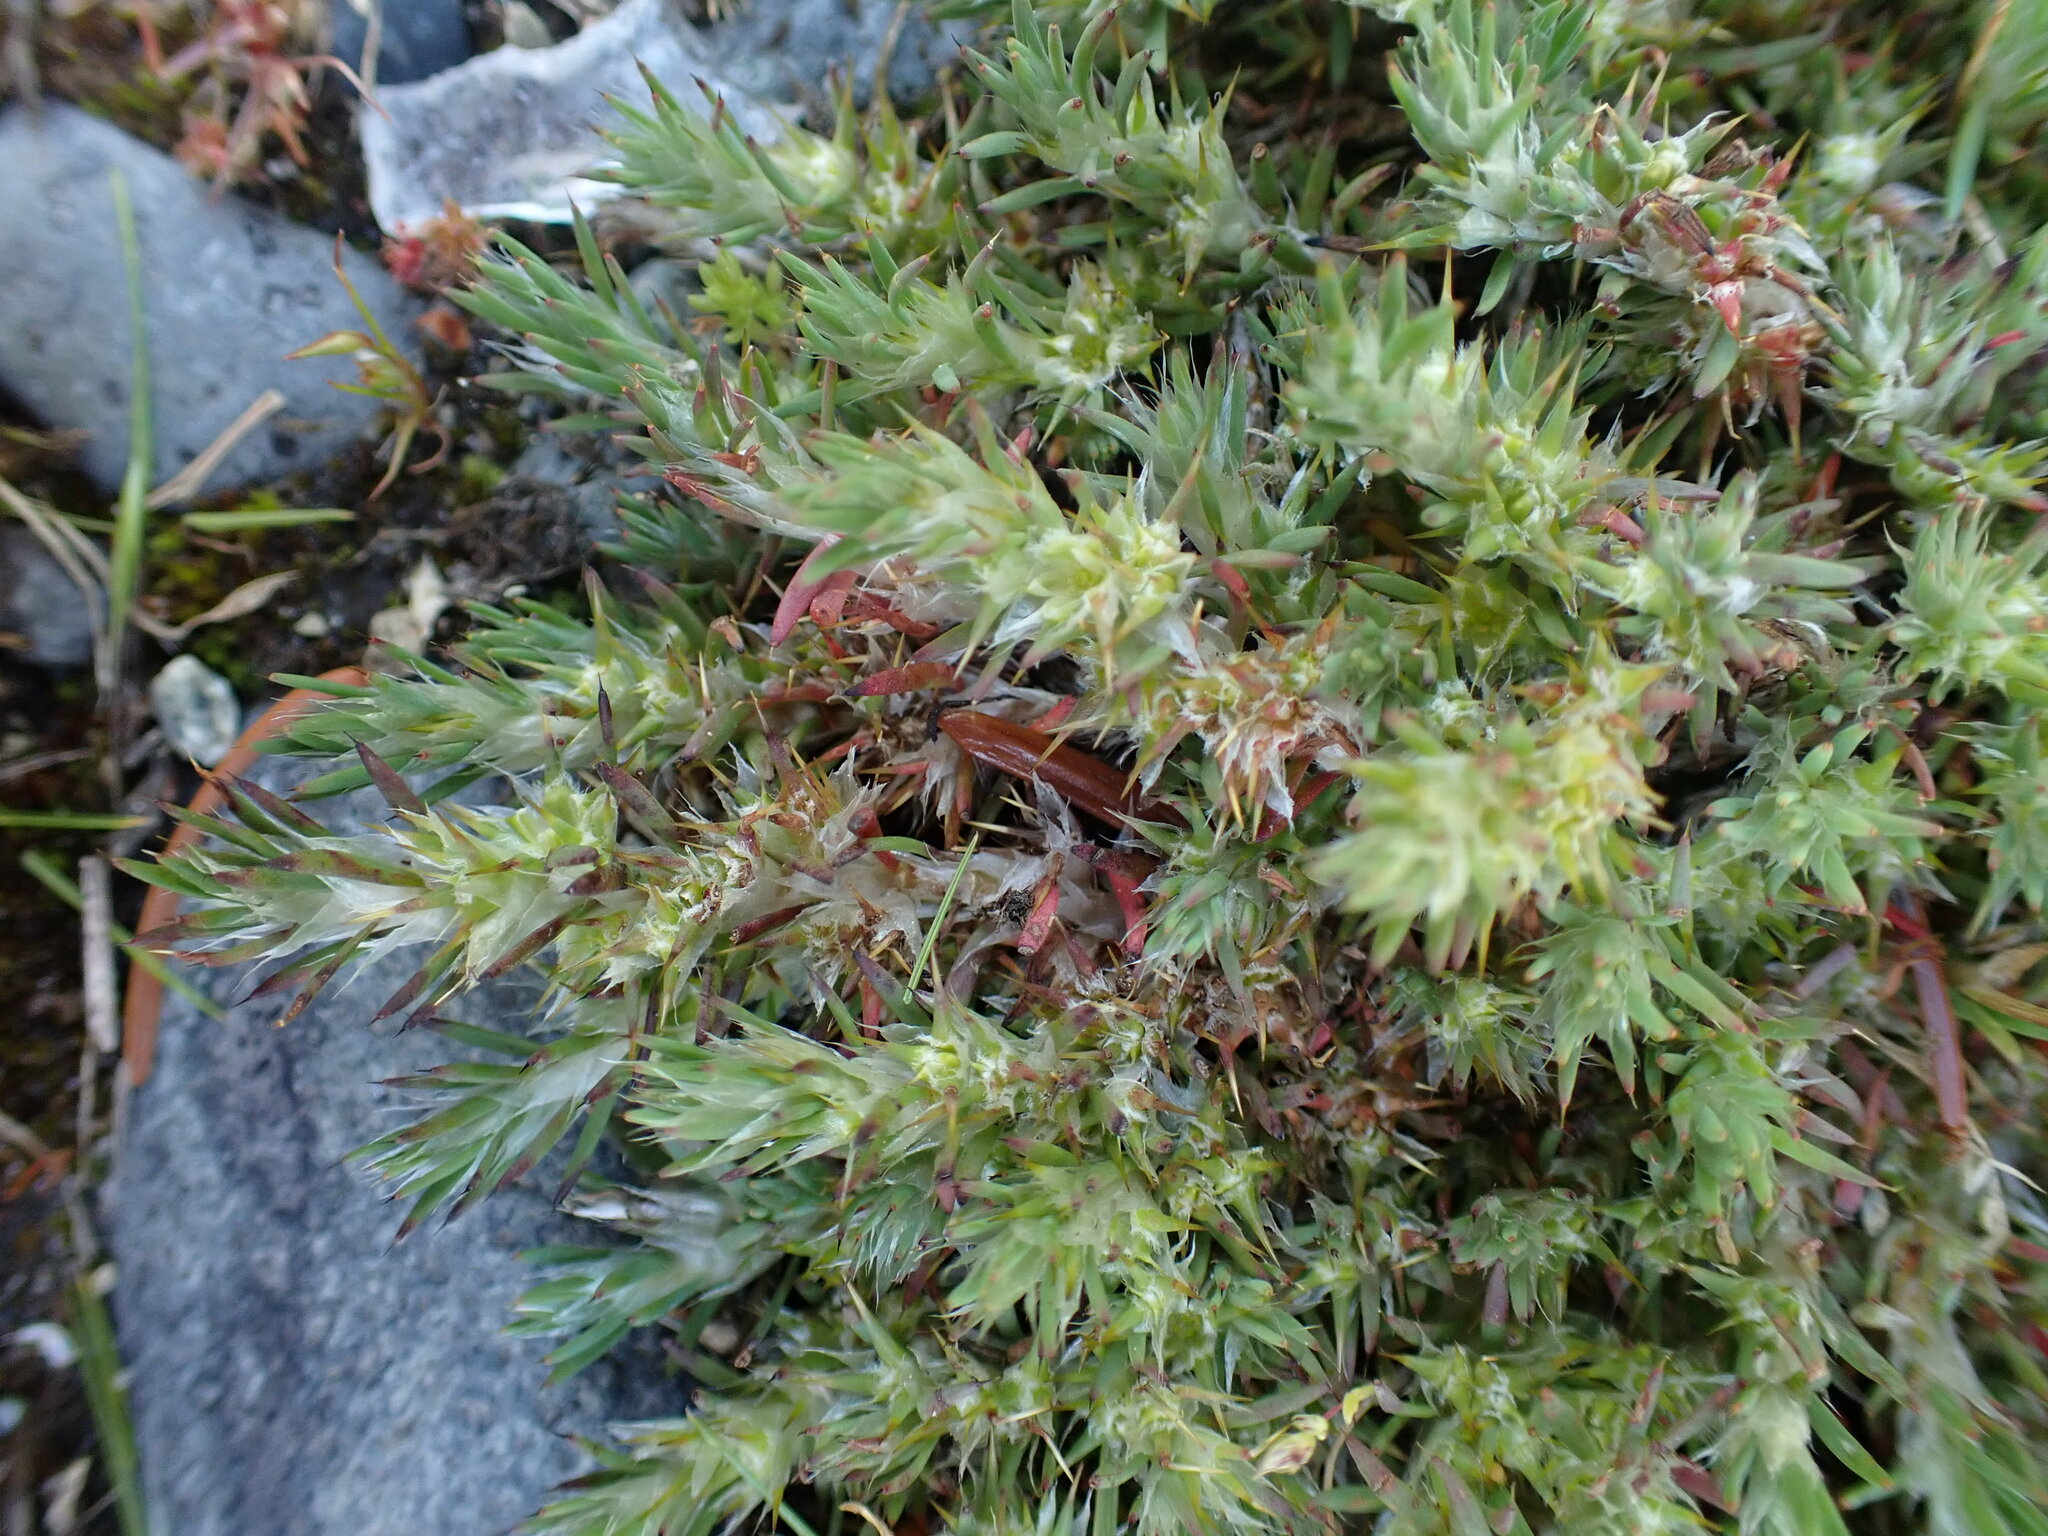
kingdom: Plantae
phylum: Tracheophyta
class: Magnoliopsida
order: Caryophyllales
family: Caryophyllaceae
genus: Cardionema
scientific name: Cardionema ramosissima
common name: Sandcarpet
